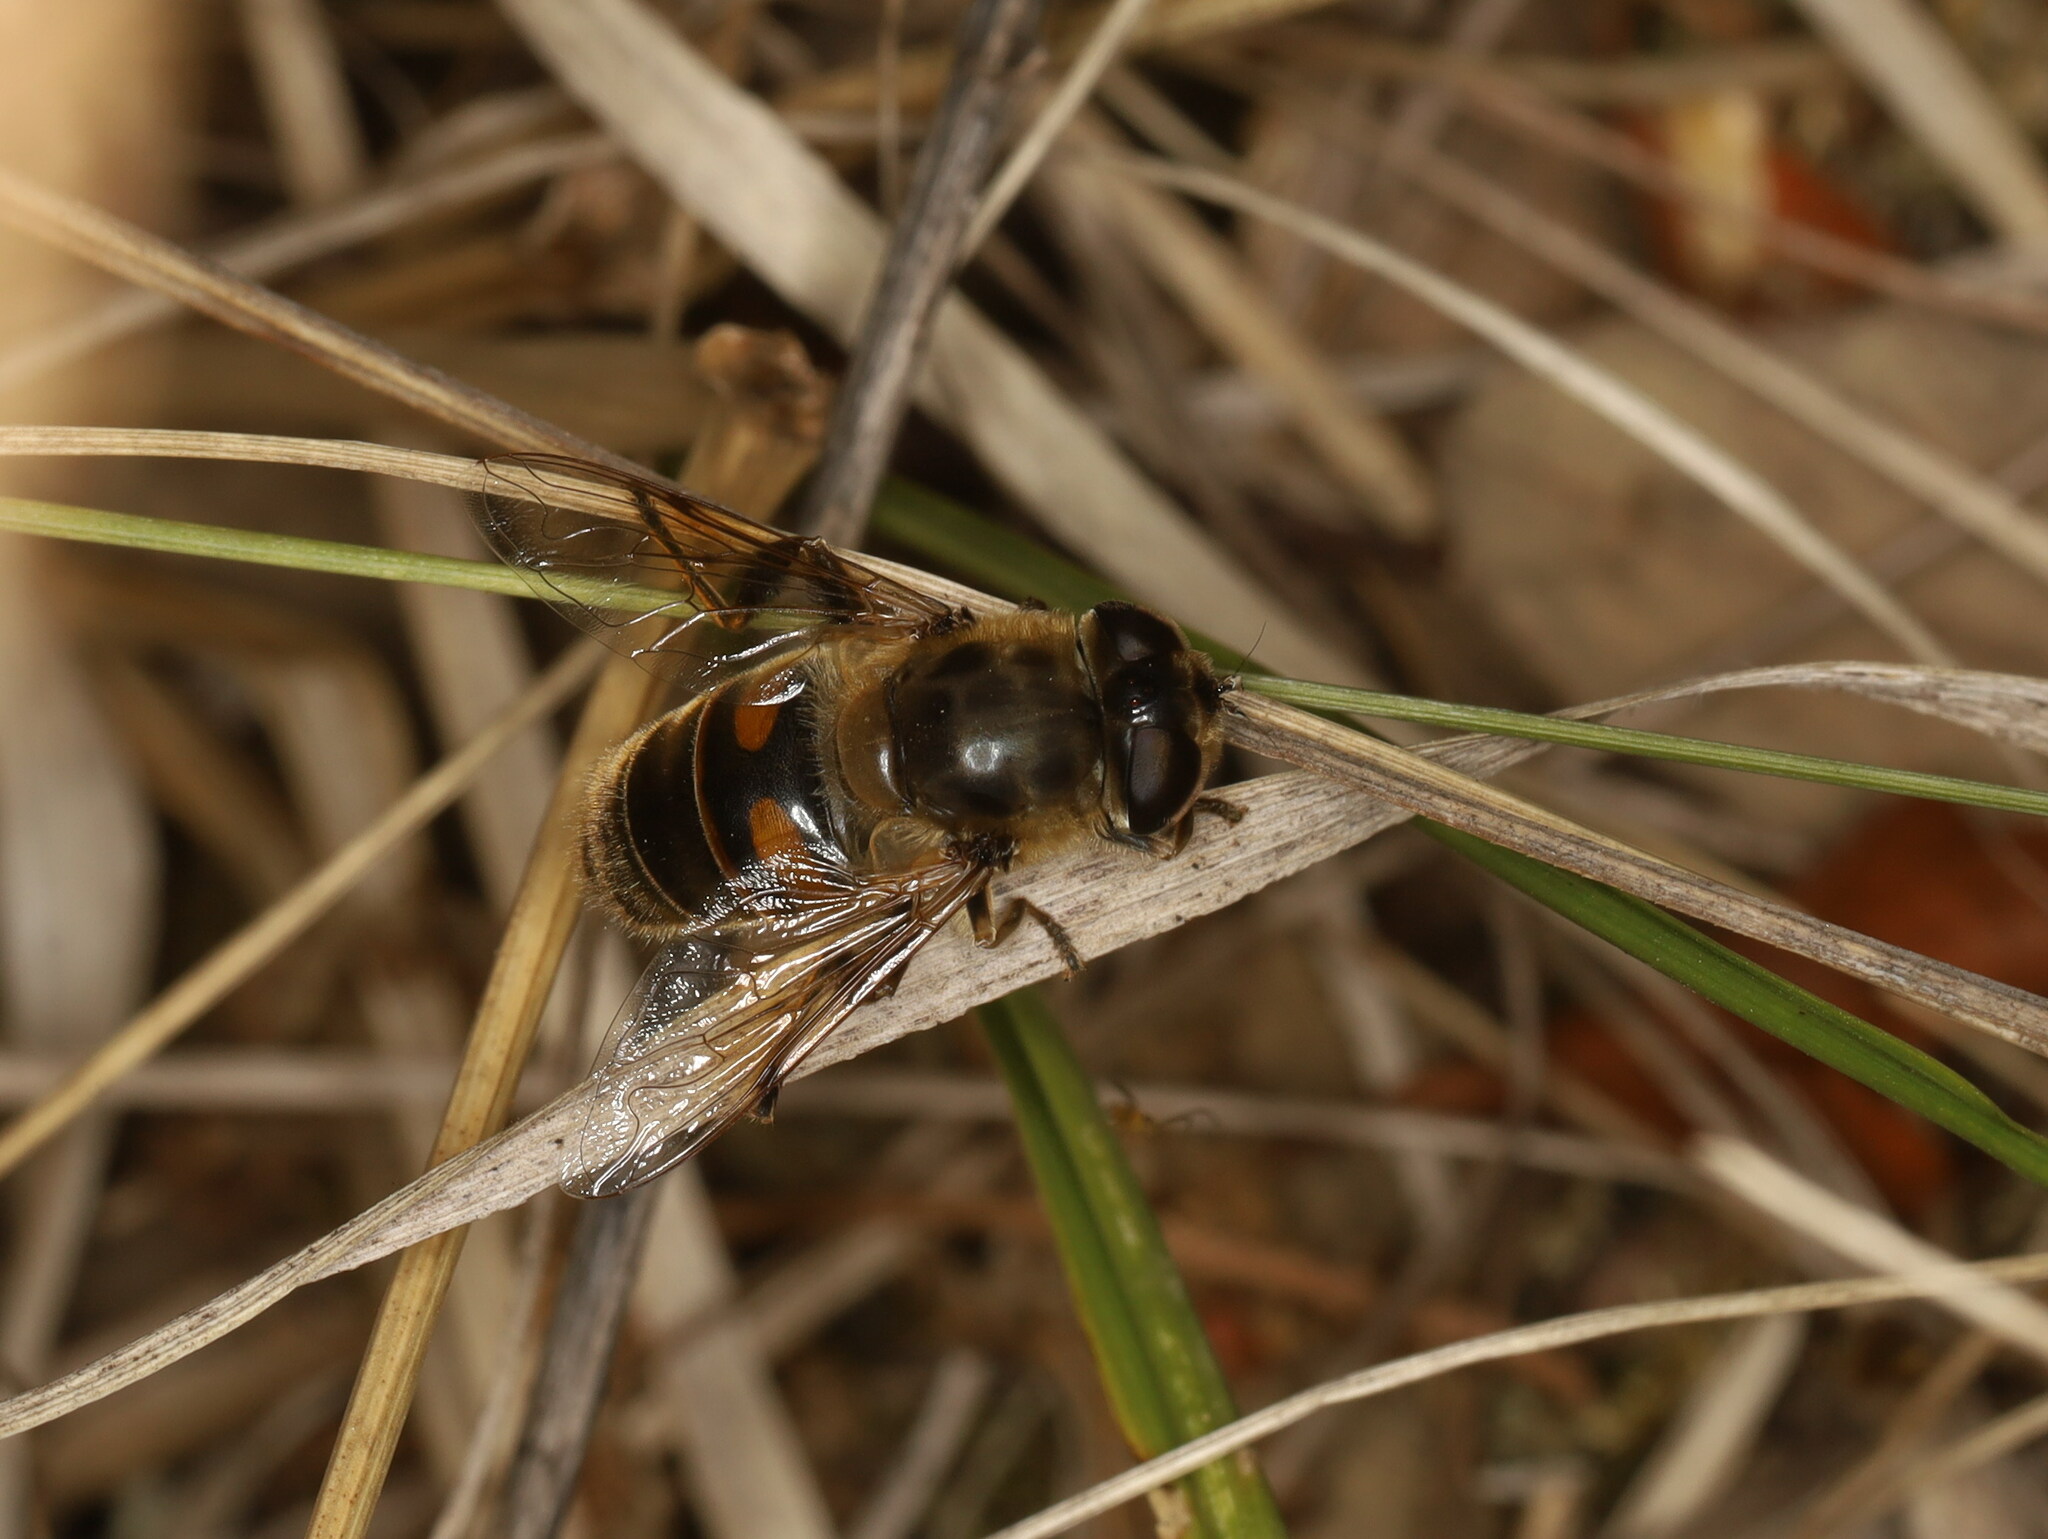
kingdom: Animalia
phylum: Arthropoda
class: Insecta
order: Diptera
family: Syrphidae
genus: Eristalis
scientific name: Eristalis tenax
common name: Drone fly
